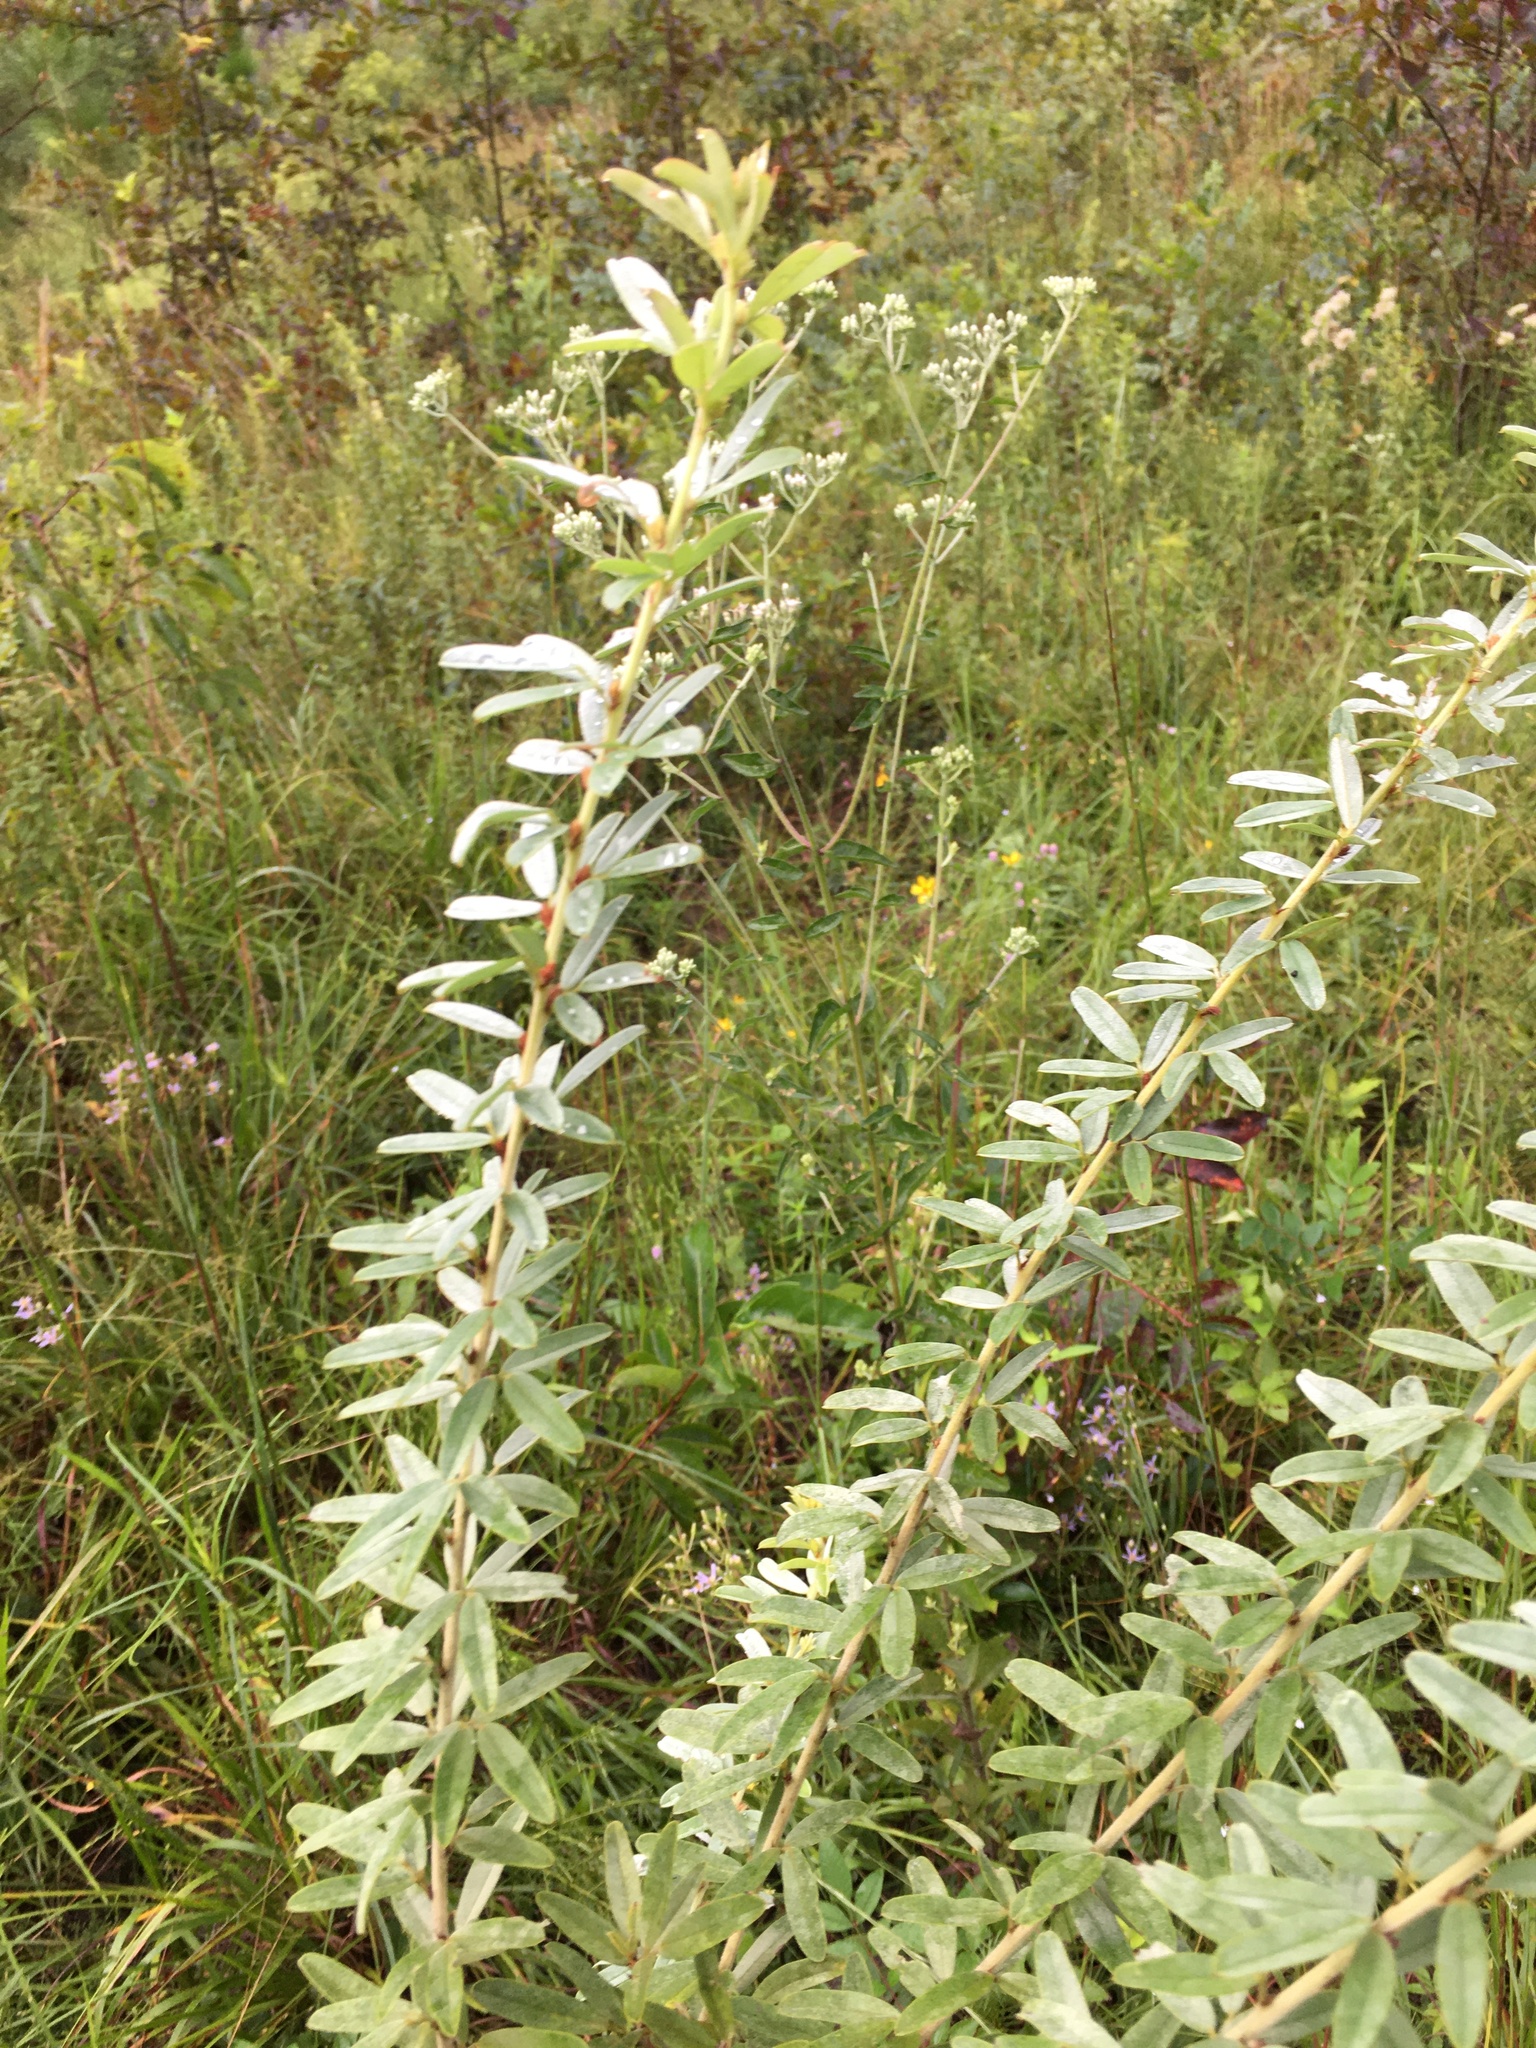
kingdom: Plantae
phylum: Tracheophyta
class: Magnoliopsida
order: Fabales
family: Fabaceae
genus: Lespedeza
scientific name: Lespedeza capitata
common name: Dusty clover
